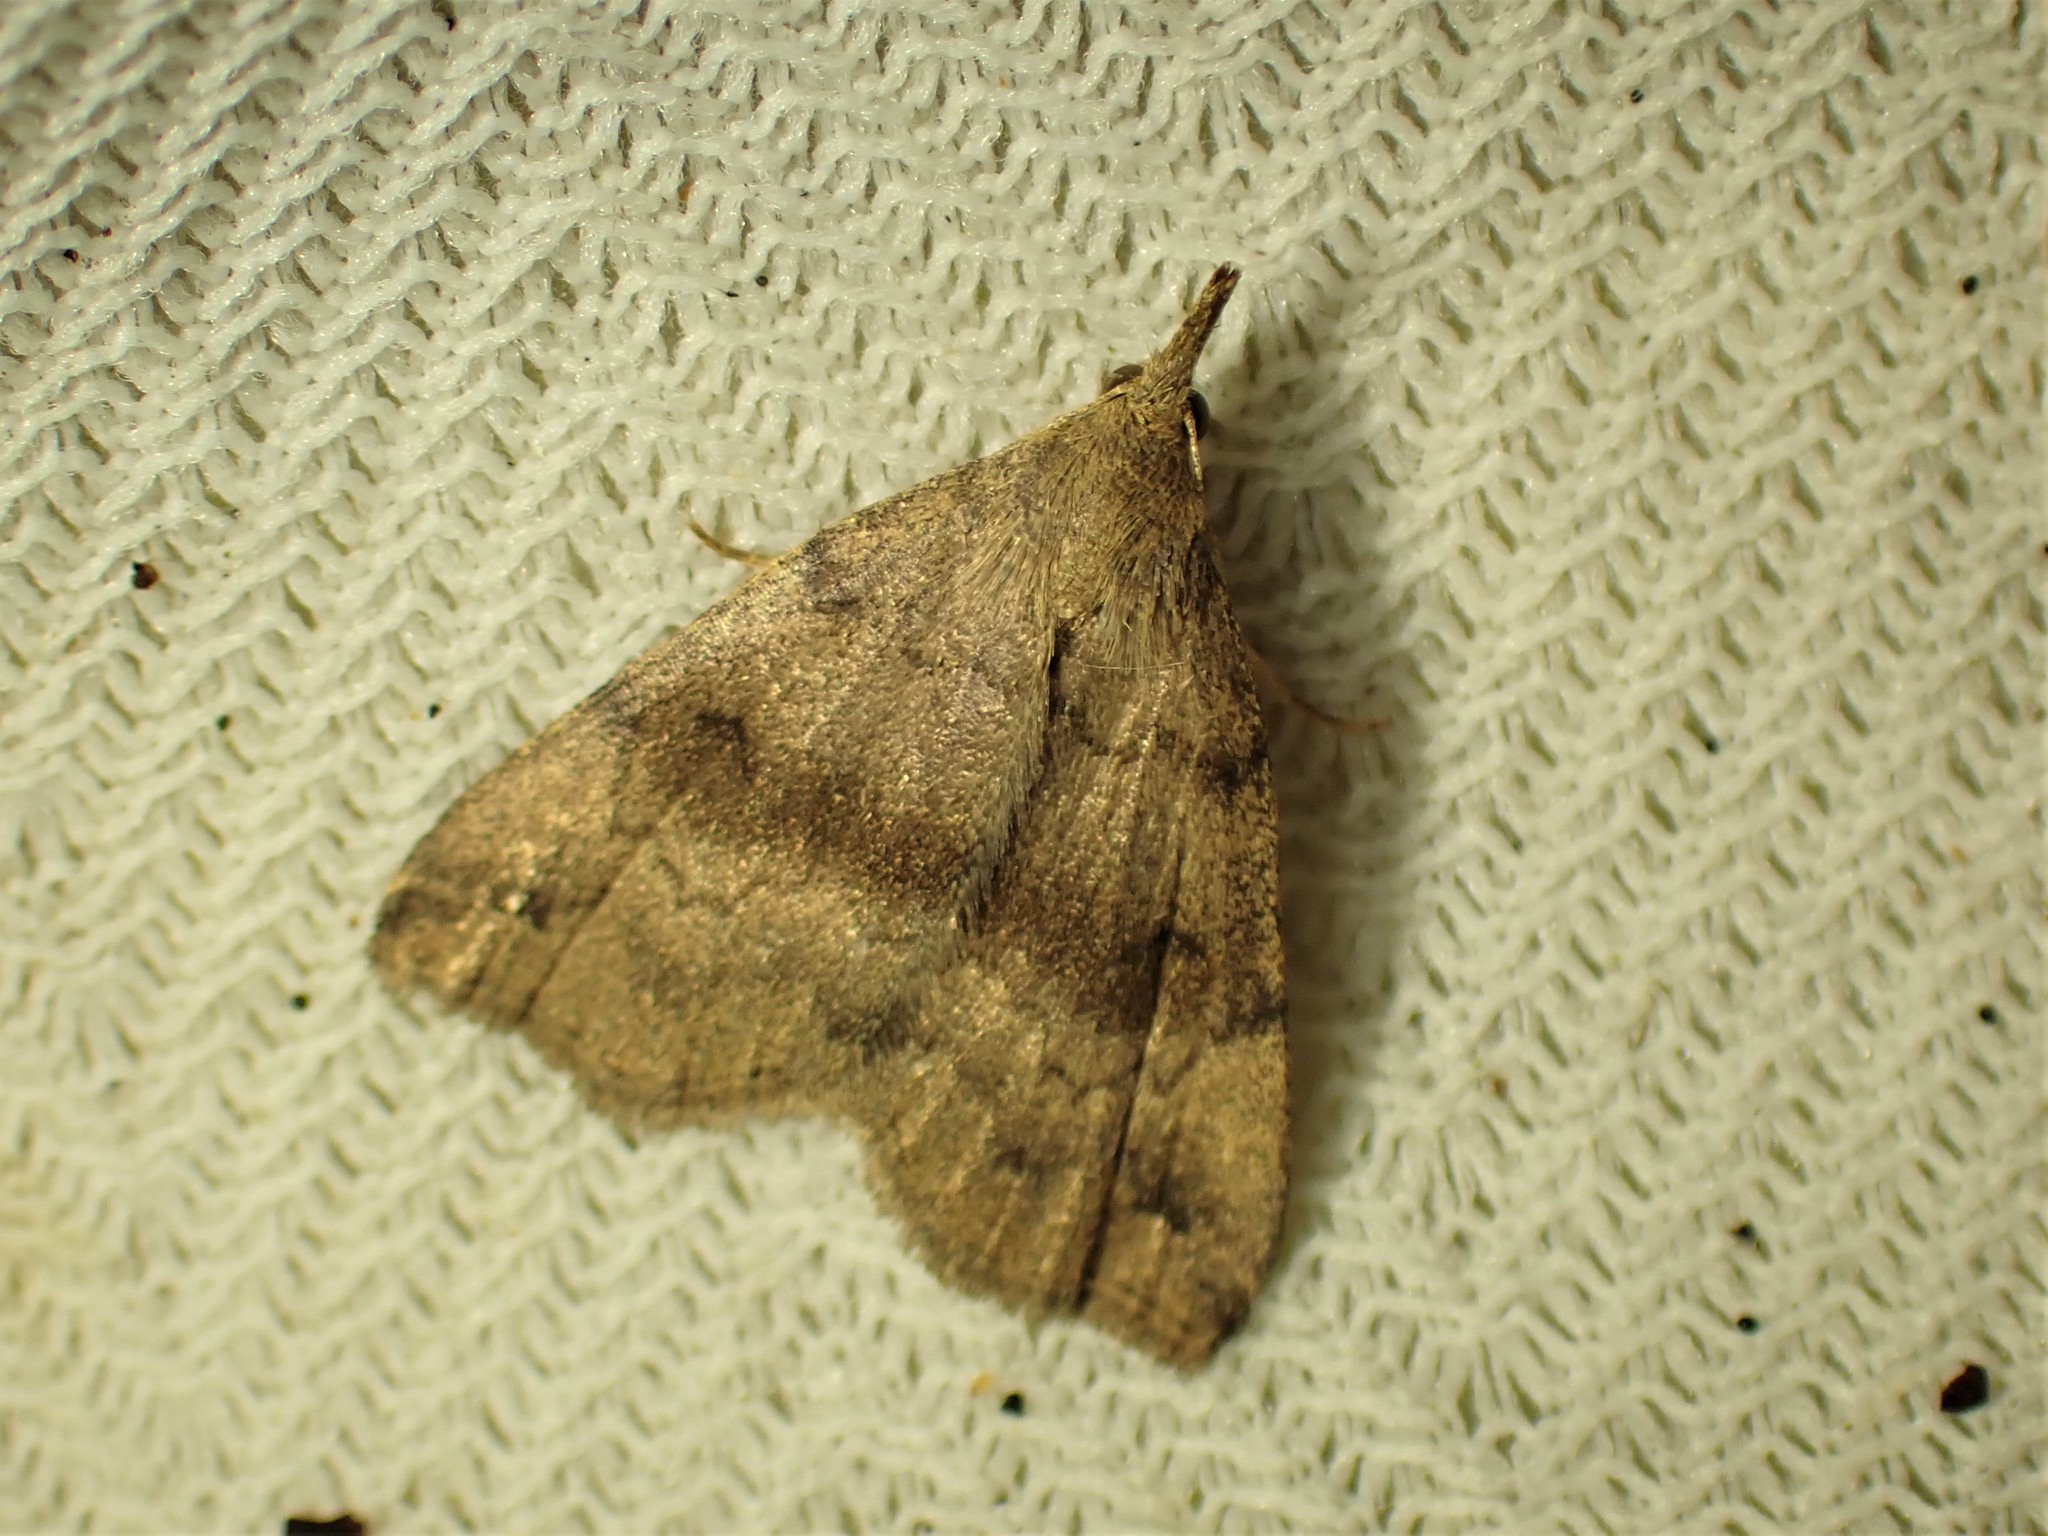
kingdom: Animalia
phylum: Arthropoda
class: Insecta
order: Lepidoptera
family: Erebidae
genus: Phalaenostola
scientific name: Phalaenostola eumelusalis
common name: Dark phalaenostola moth
